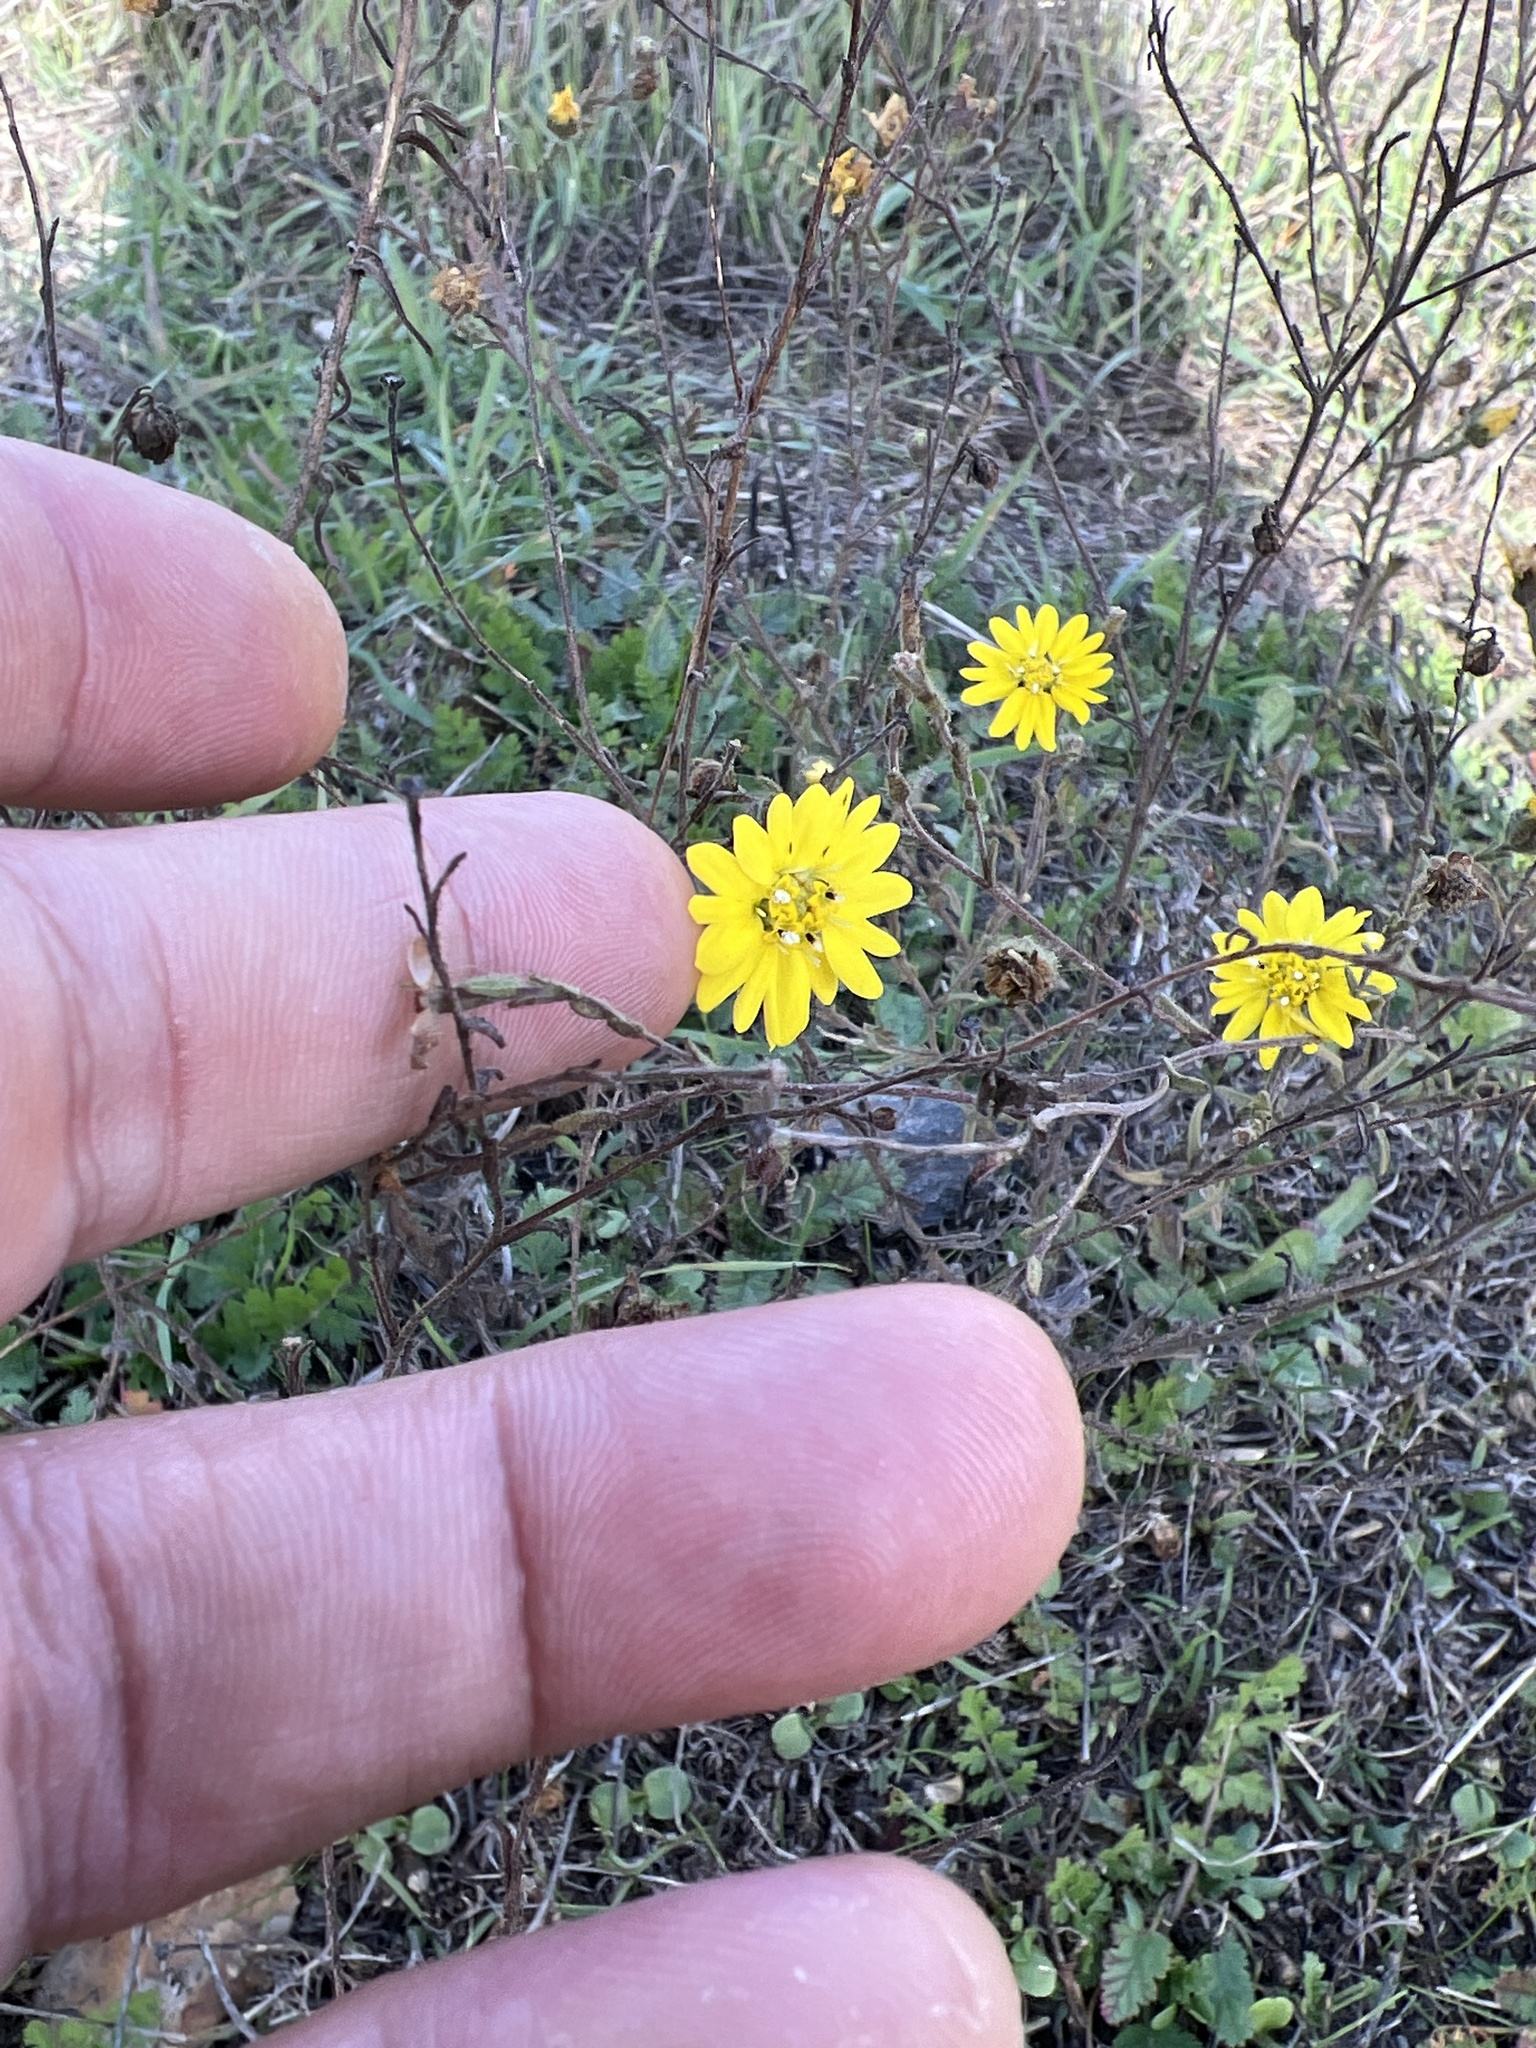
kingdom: Plantae
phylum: Tracheophyta
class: Magnoliopsida
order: Asterales
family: Asteraceae
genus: Hemizonia
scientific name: Hemizonia congesta
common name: Hayfield tarweed
